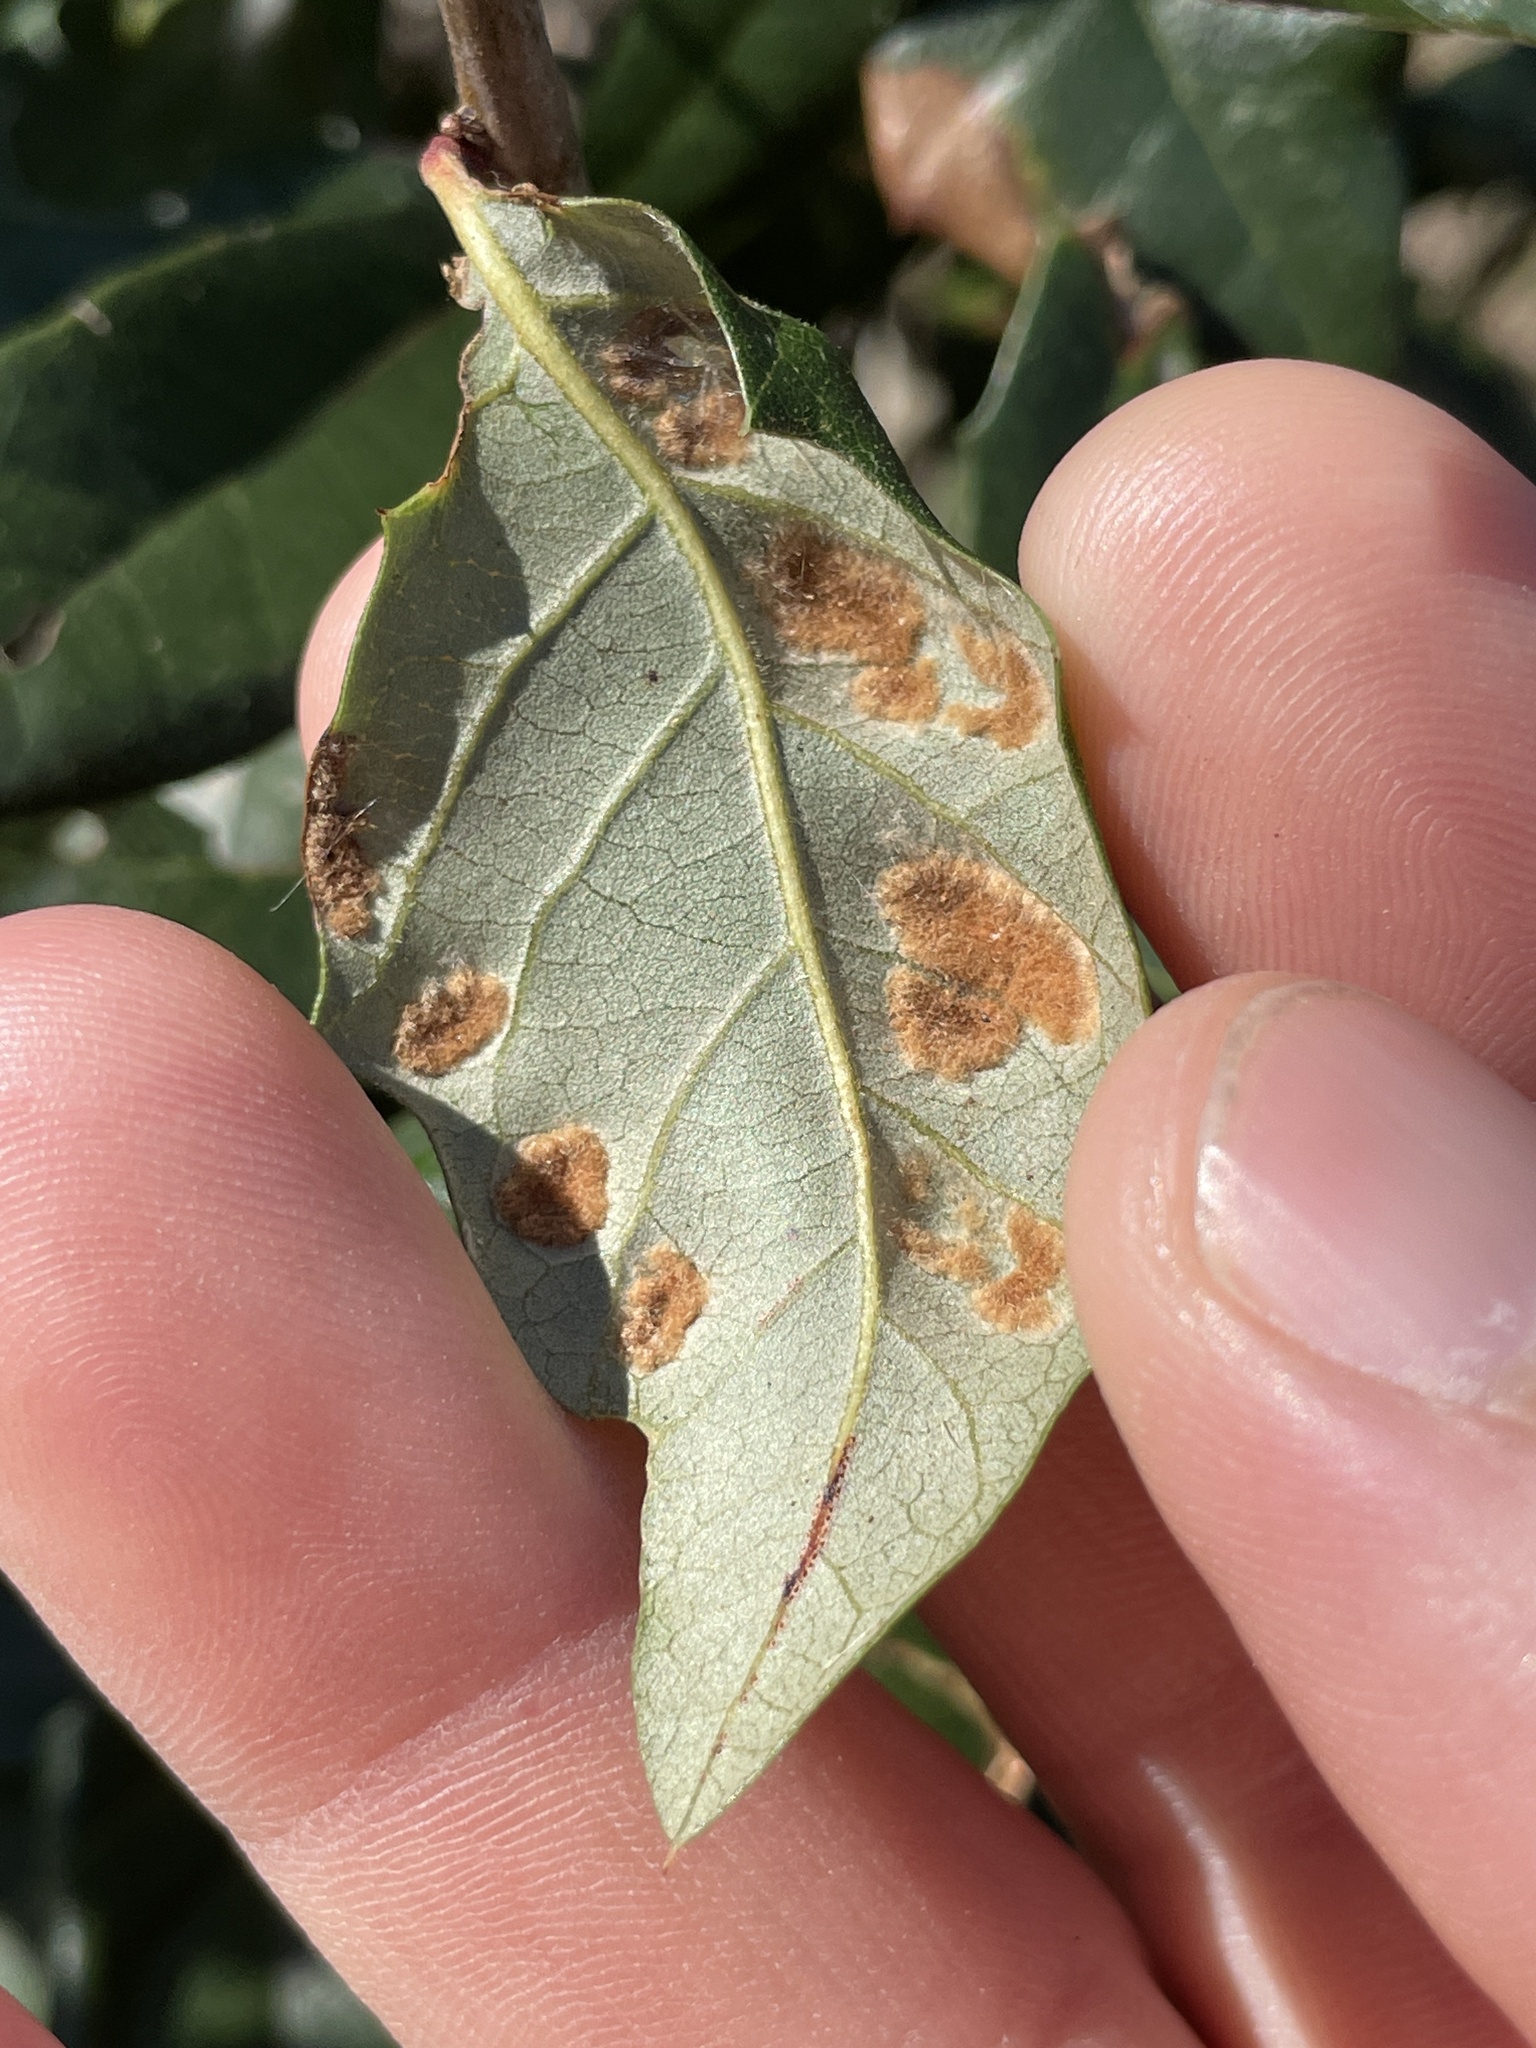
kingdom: Animalia
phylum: Arthropoda
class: Arachnida
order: Trombidiformes
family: Eriophyidae
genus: Aceria
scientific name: Aceria quercina
